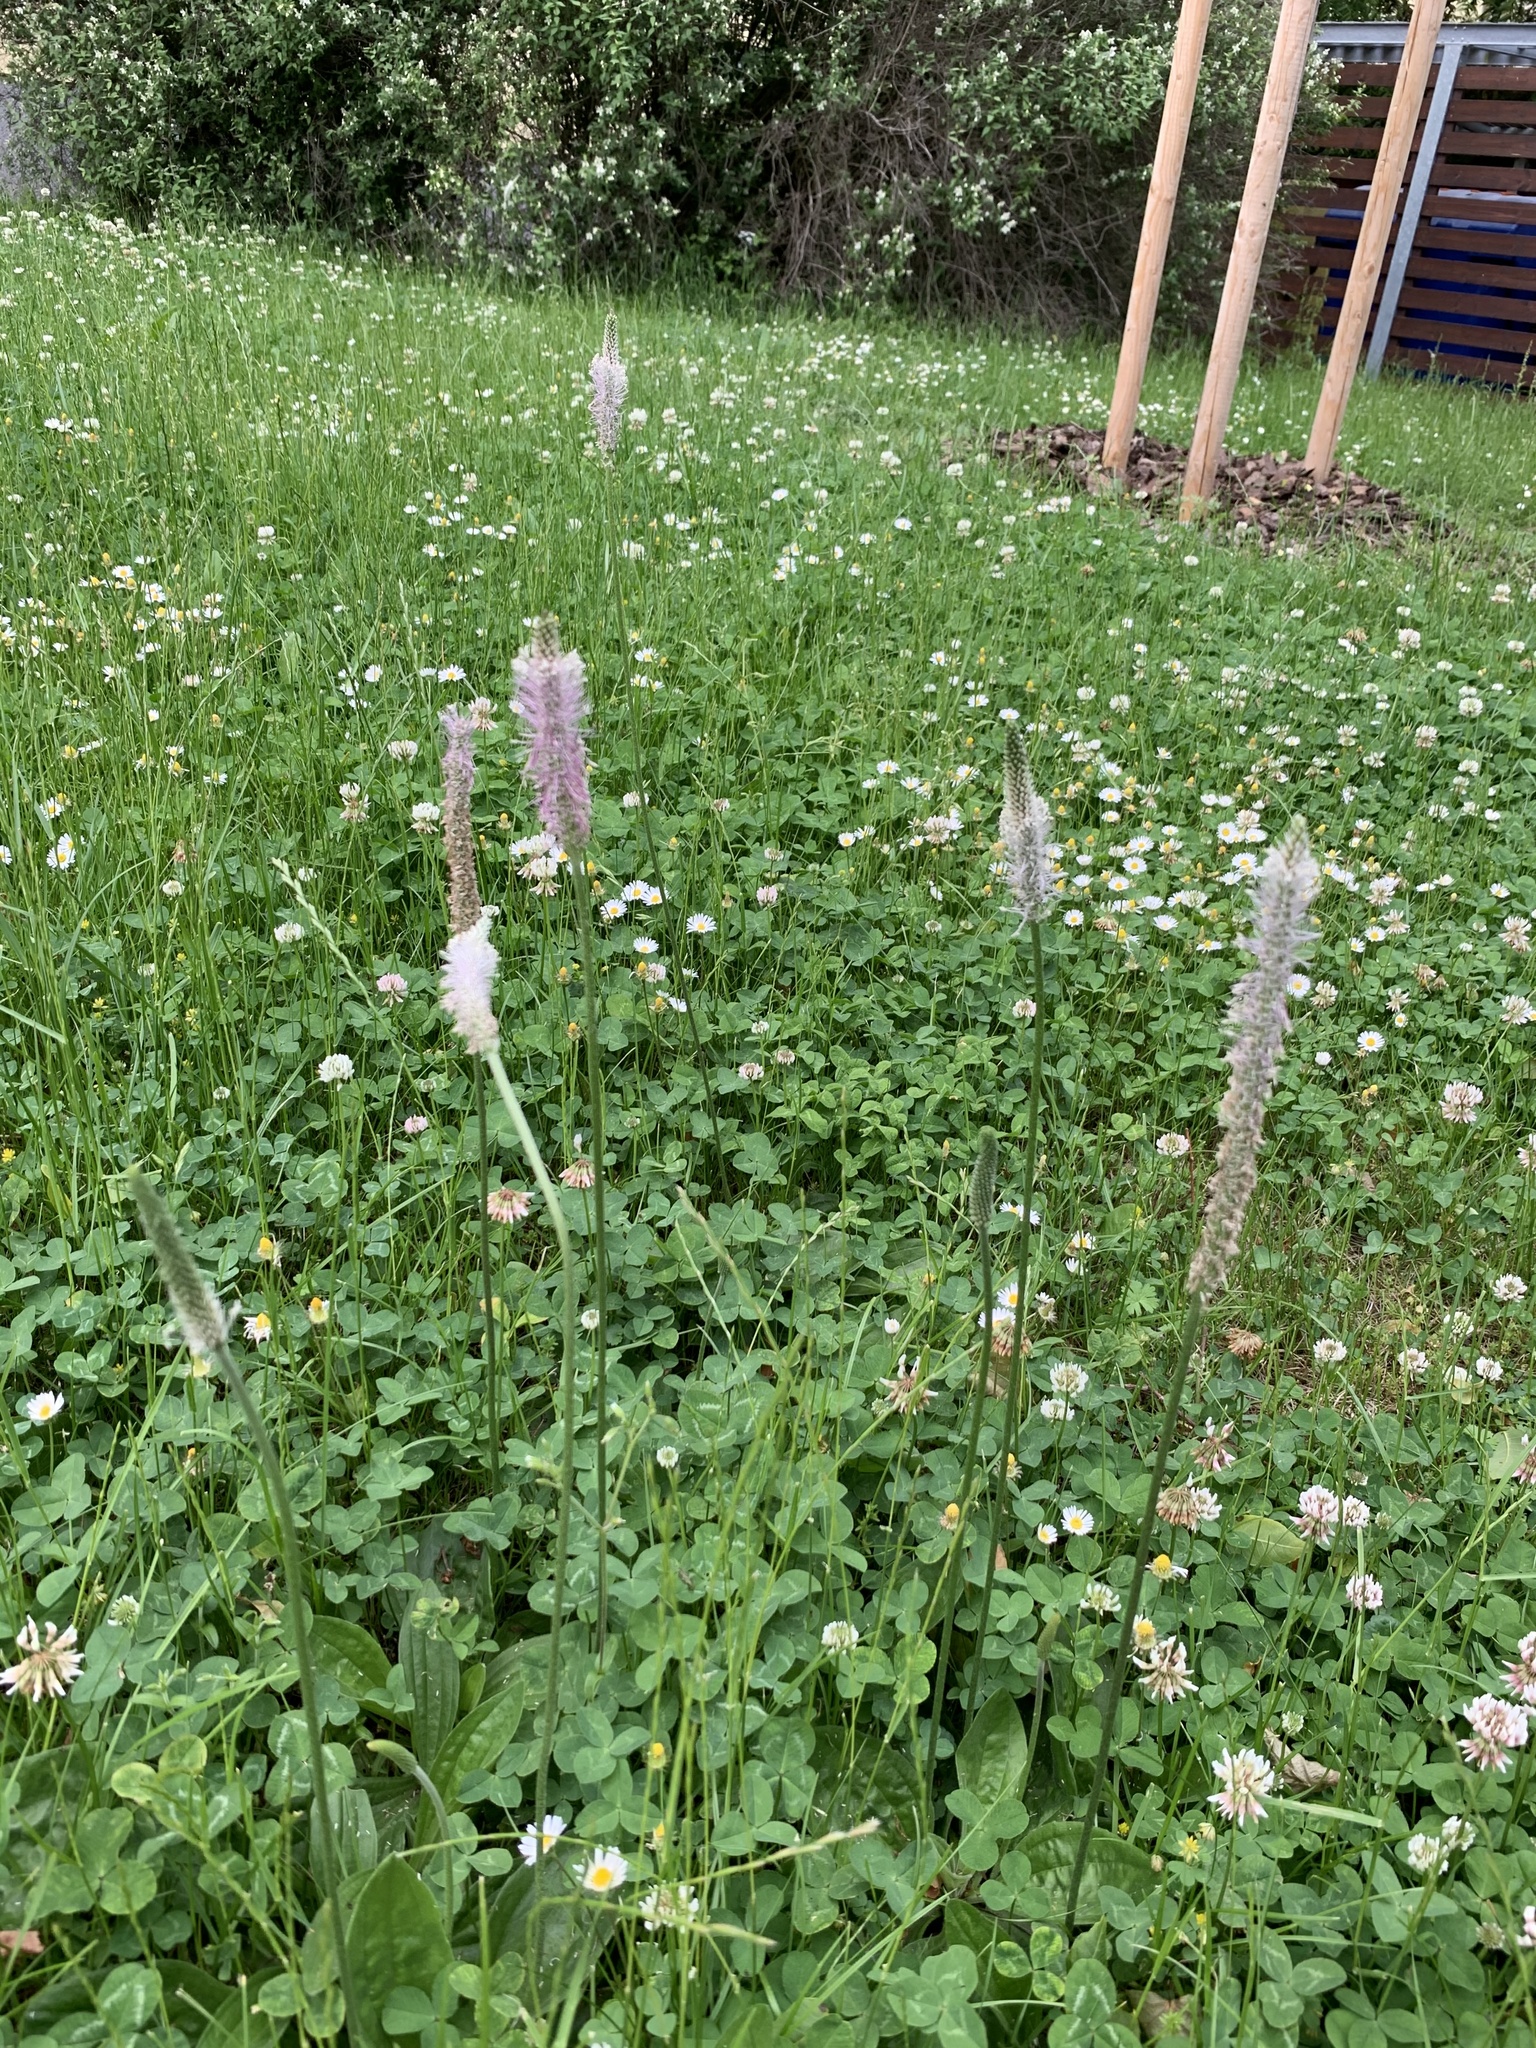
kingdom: Plantae
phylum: Tracheophyta
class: Magnoliopsida
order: Lamiales
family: Plantaginaceae
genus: Plantago
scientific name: Plantago media
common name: Hoary plantain
